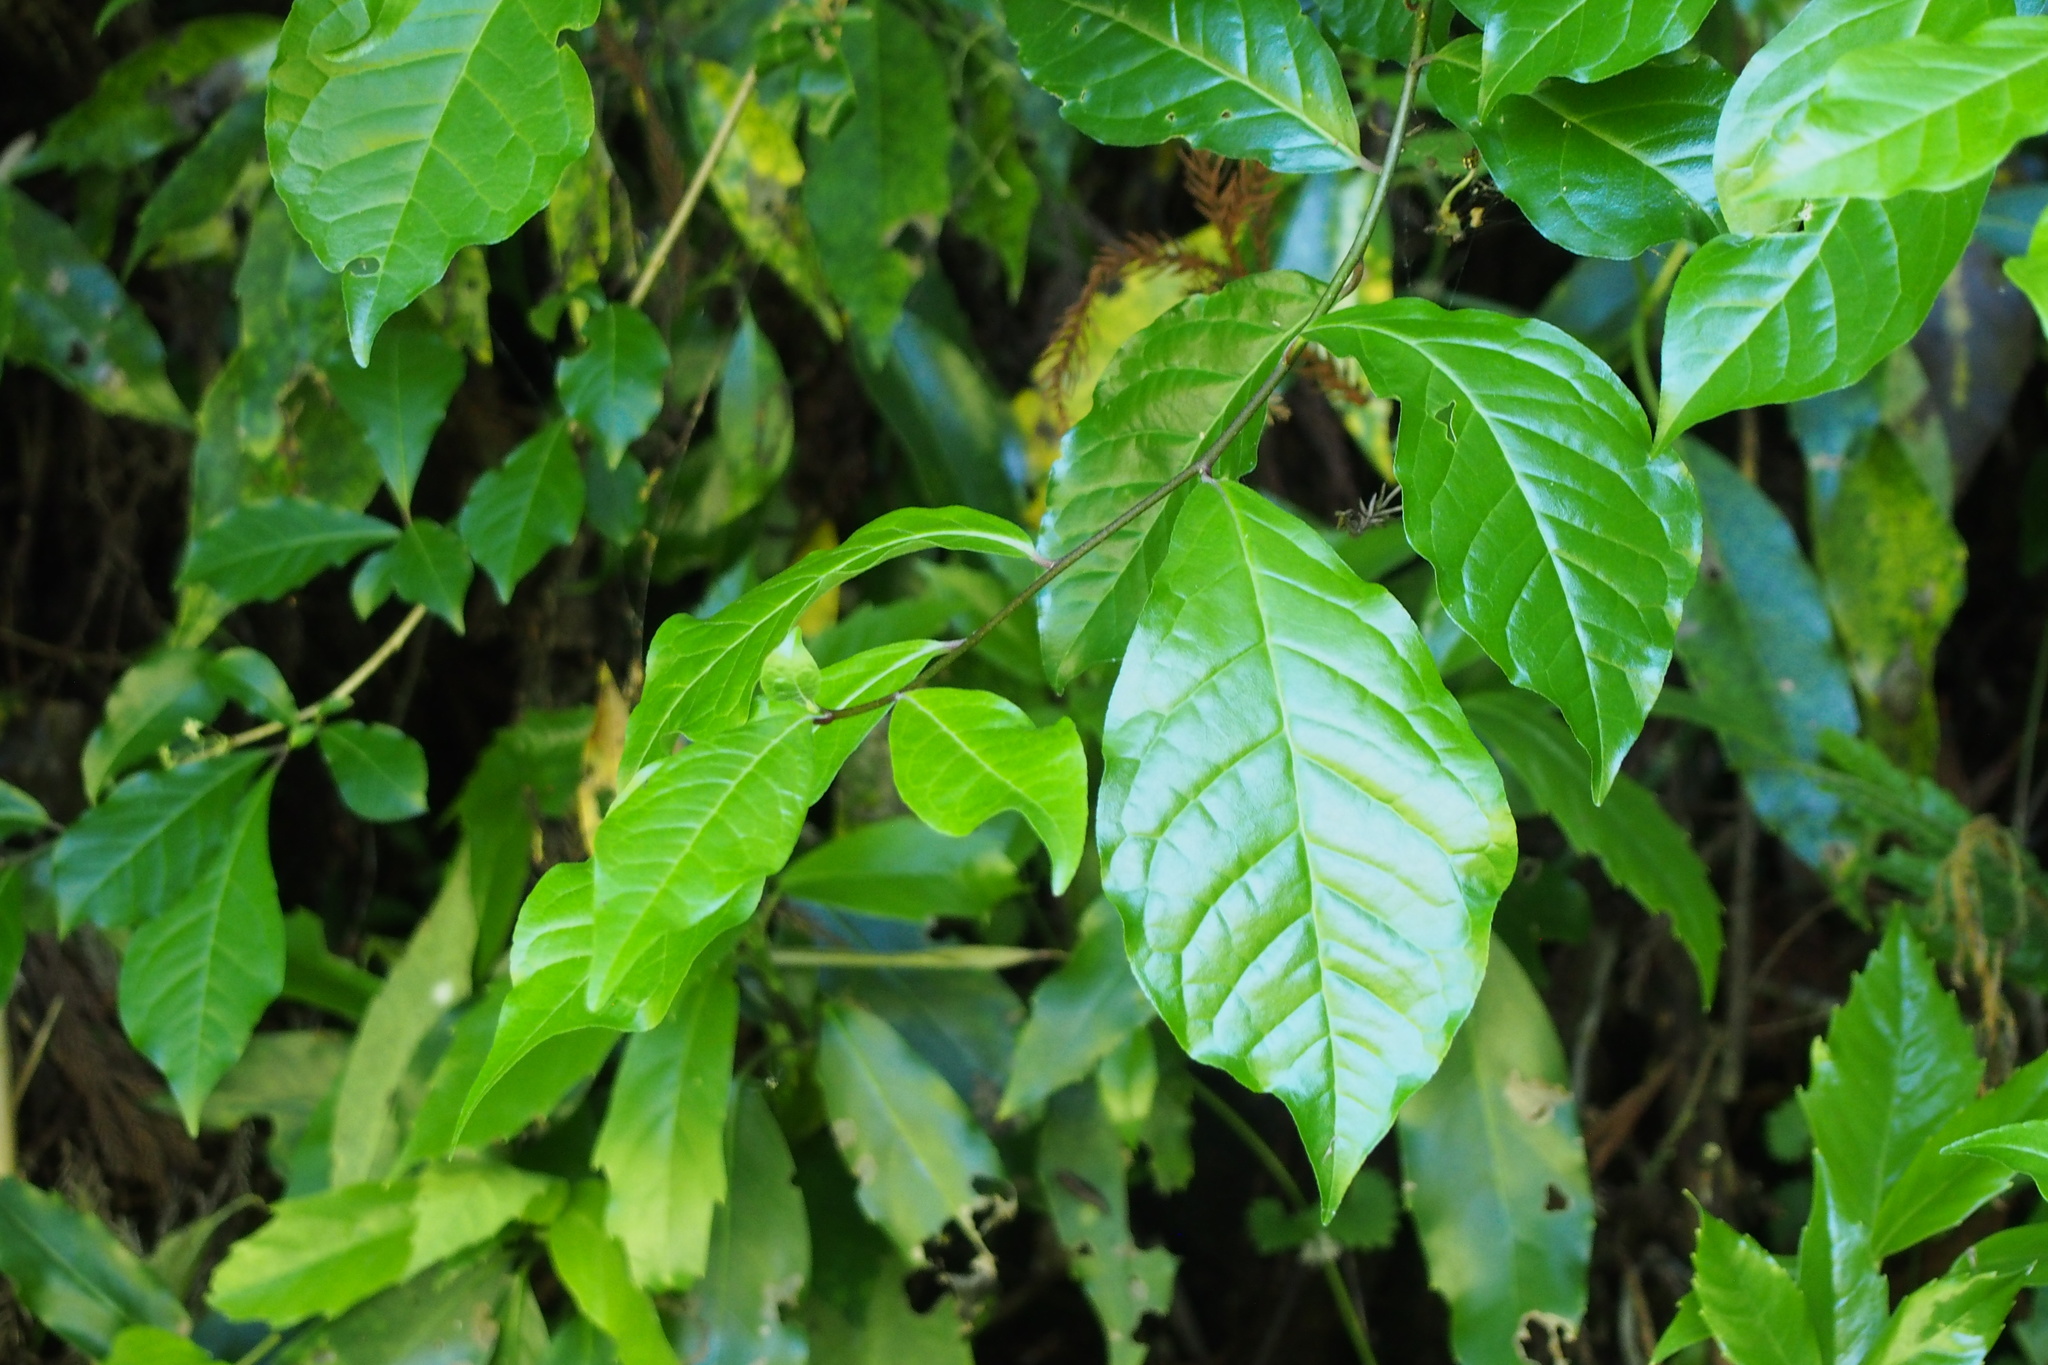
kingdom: Plantae
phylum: Tracheophyta
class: Magnoliopsida
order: Sapindales
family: Rutaceae
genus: Orixa
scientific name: Orixa japonica
